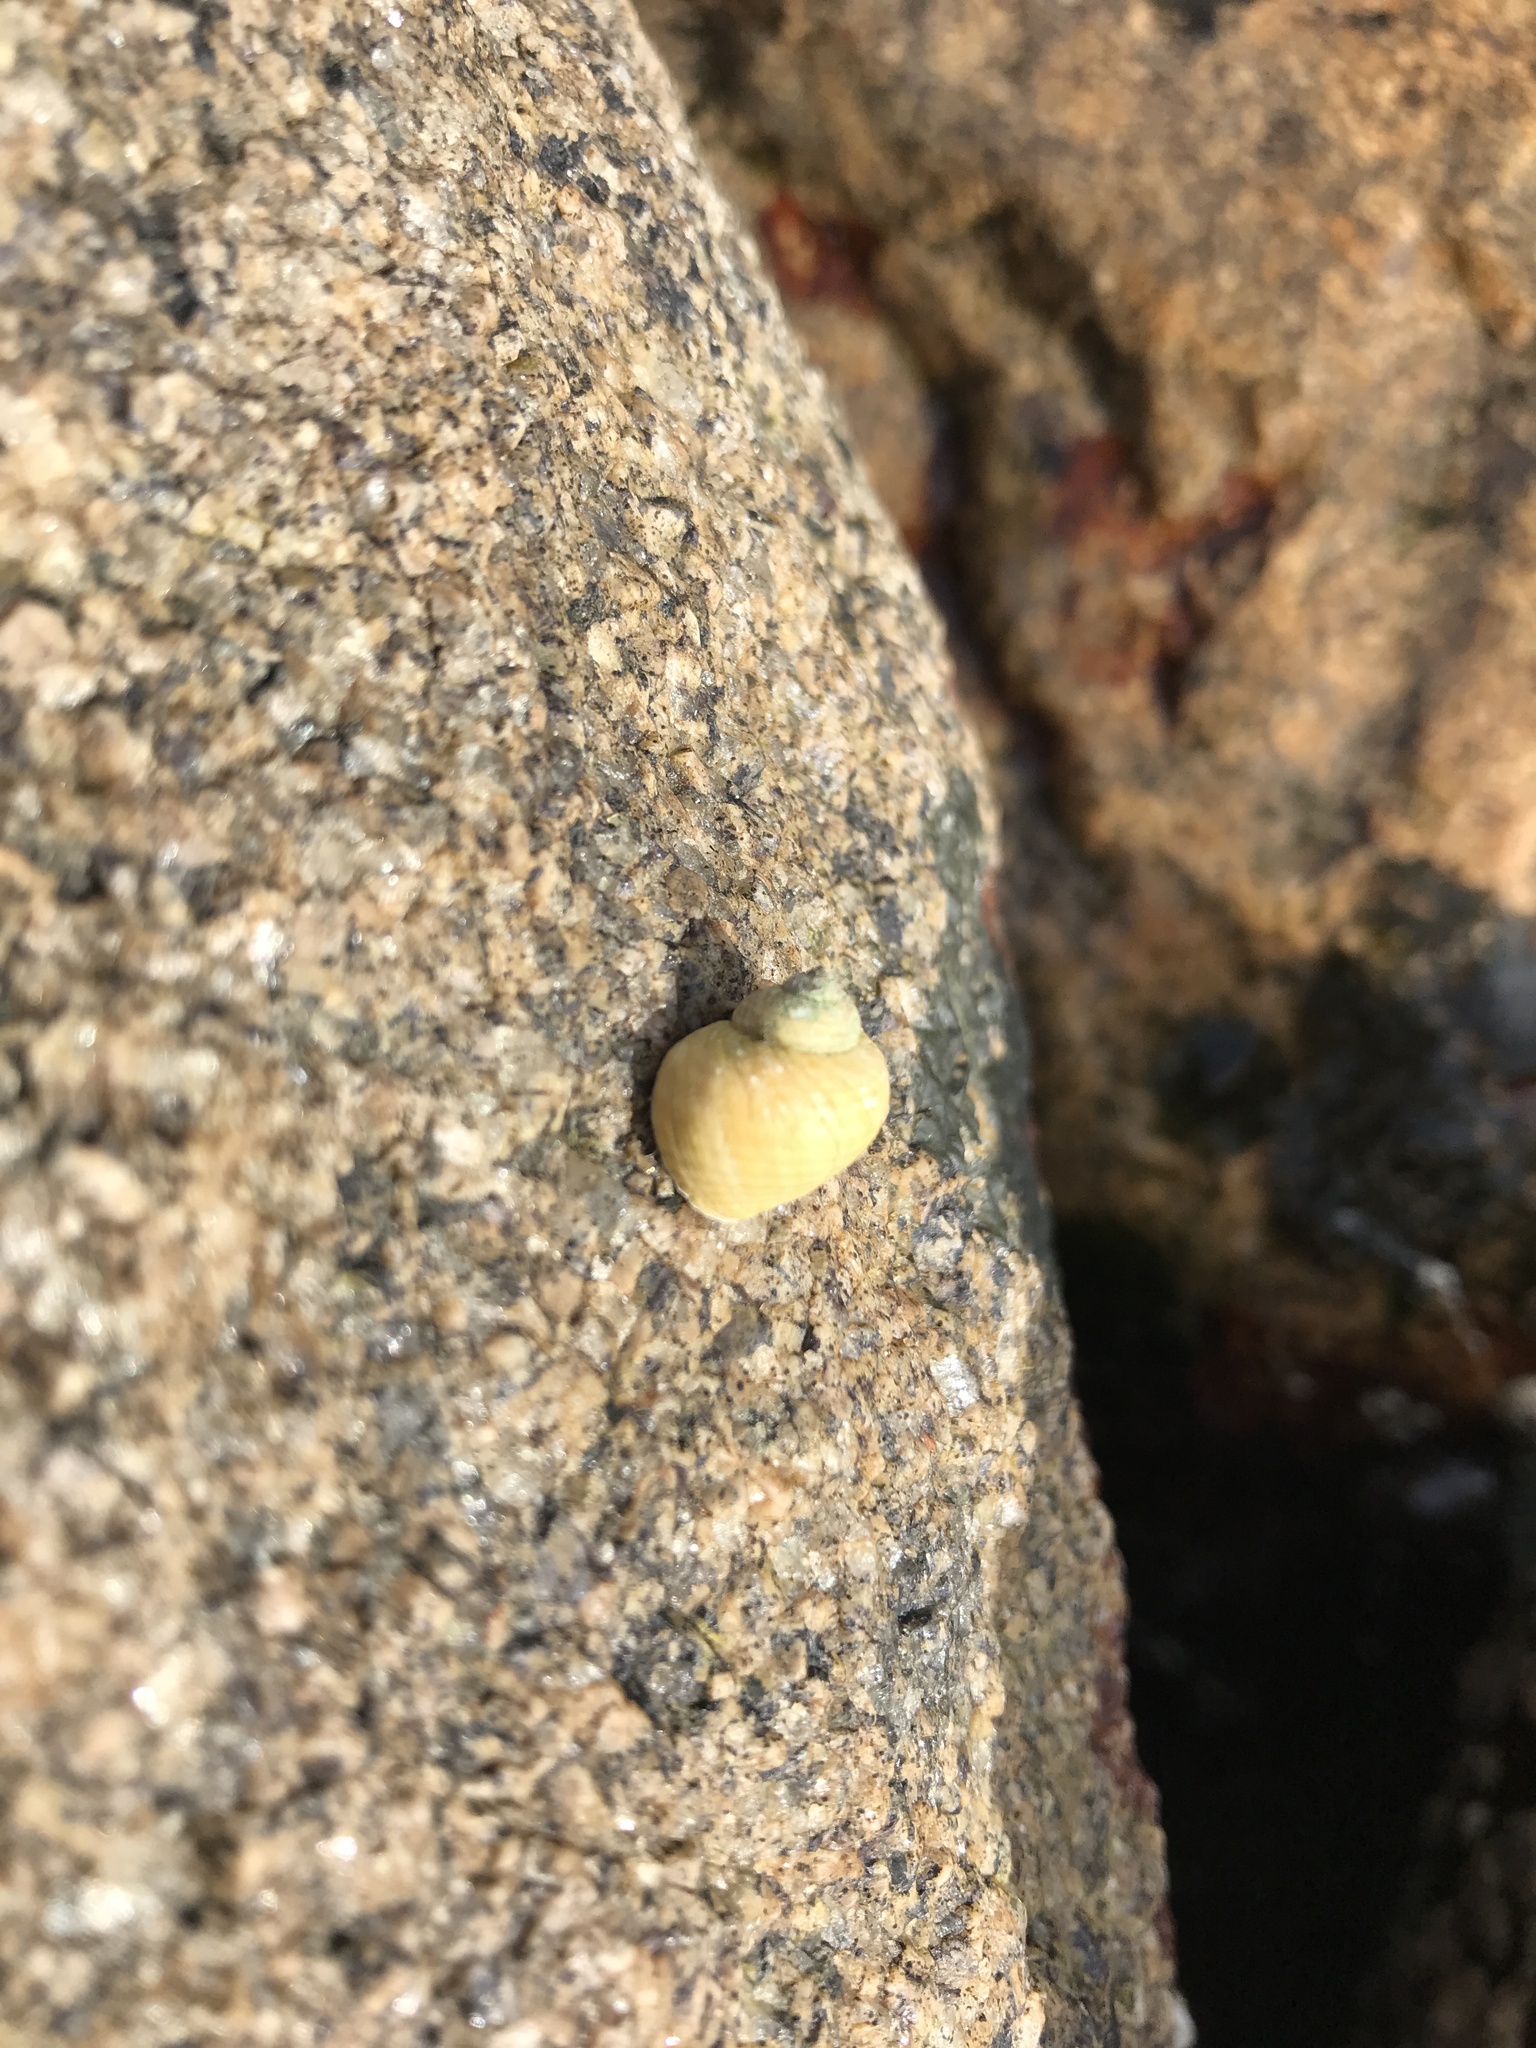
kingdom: Animalia
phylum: Mollusca
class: Gastropoda
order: Littorinimorpha
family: Littorinidae
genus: Littorina
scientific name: Littorina saxatilis
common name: Black-lined periwinkle
